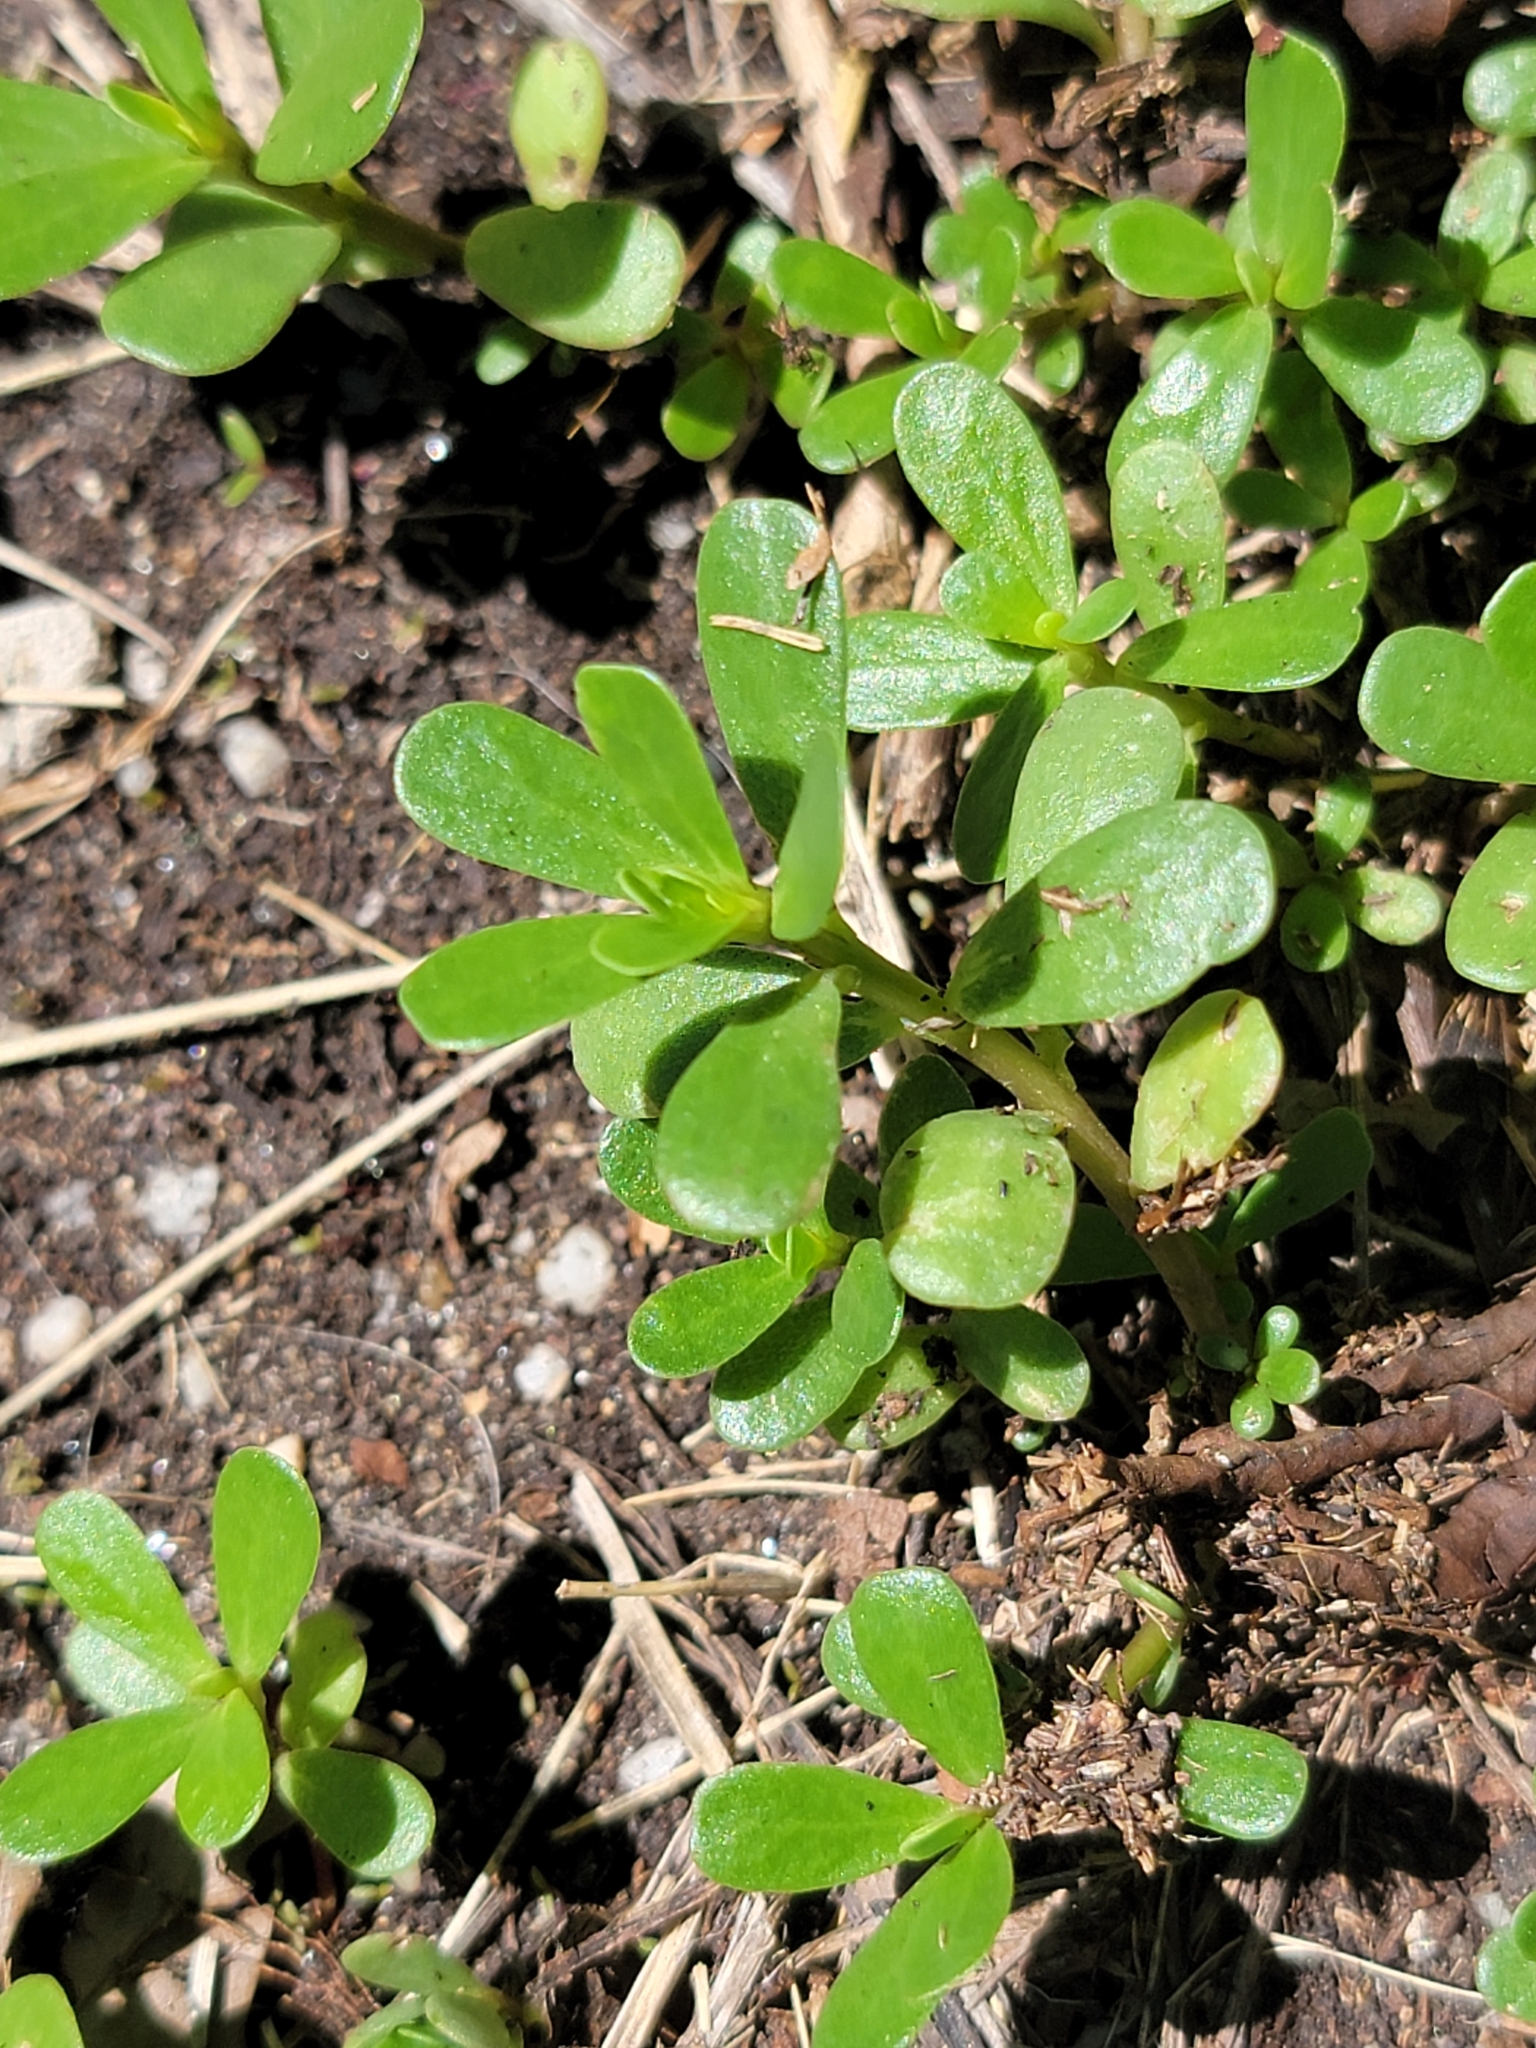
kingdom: Plantae
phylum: Tracheophyta
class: Magnoliopsida
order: Caryophyllales
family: Portulacaceae
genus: Portulaca
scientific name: Portulaca oleracea
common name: Common purslane
